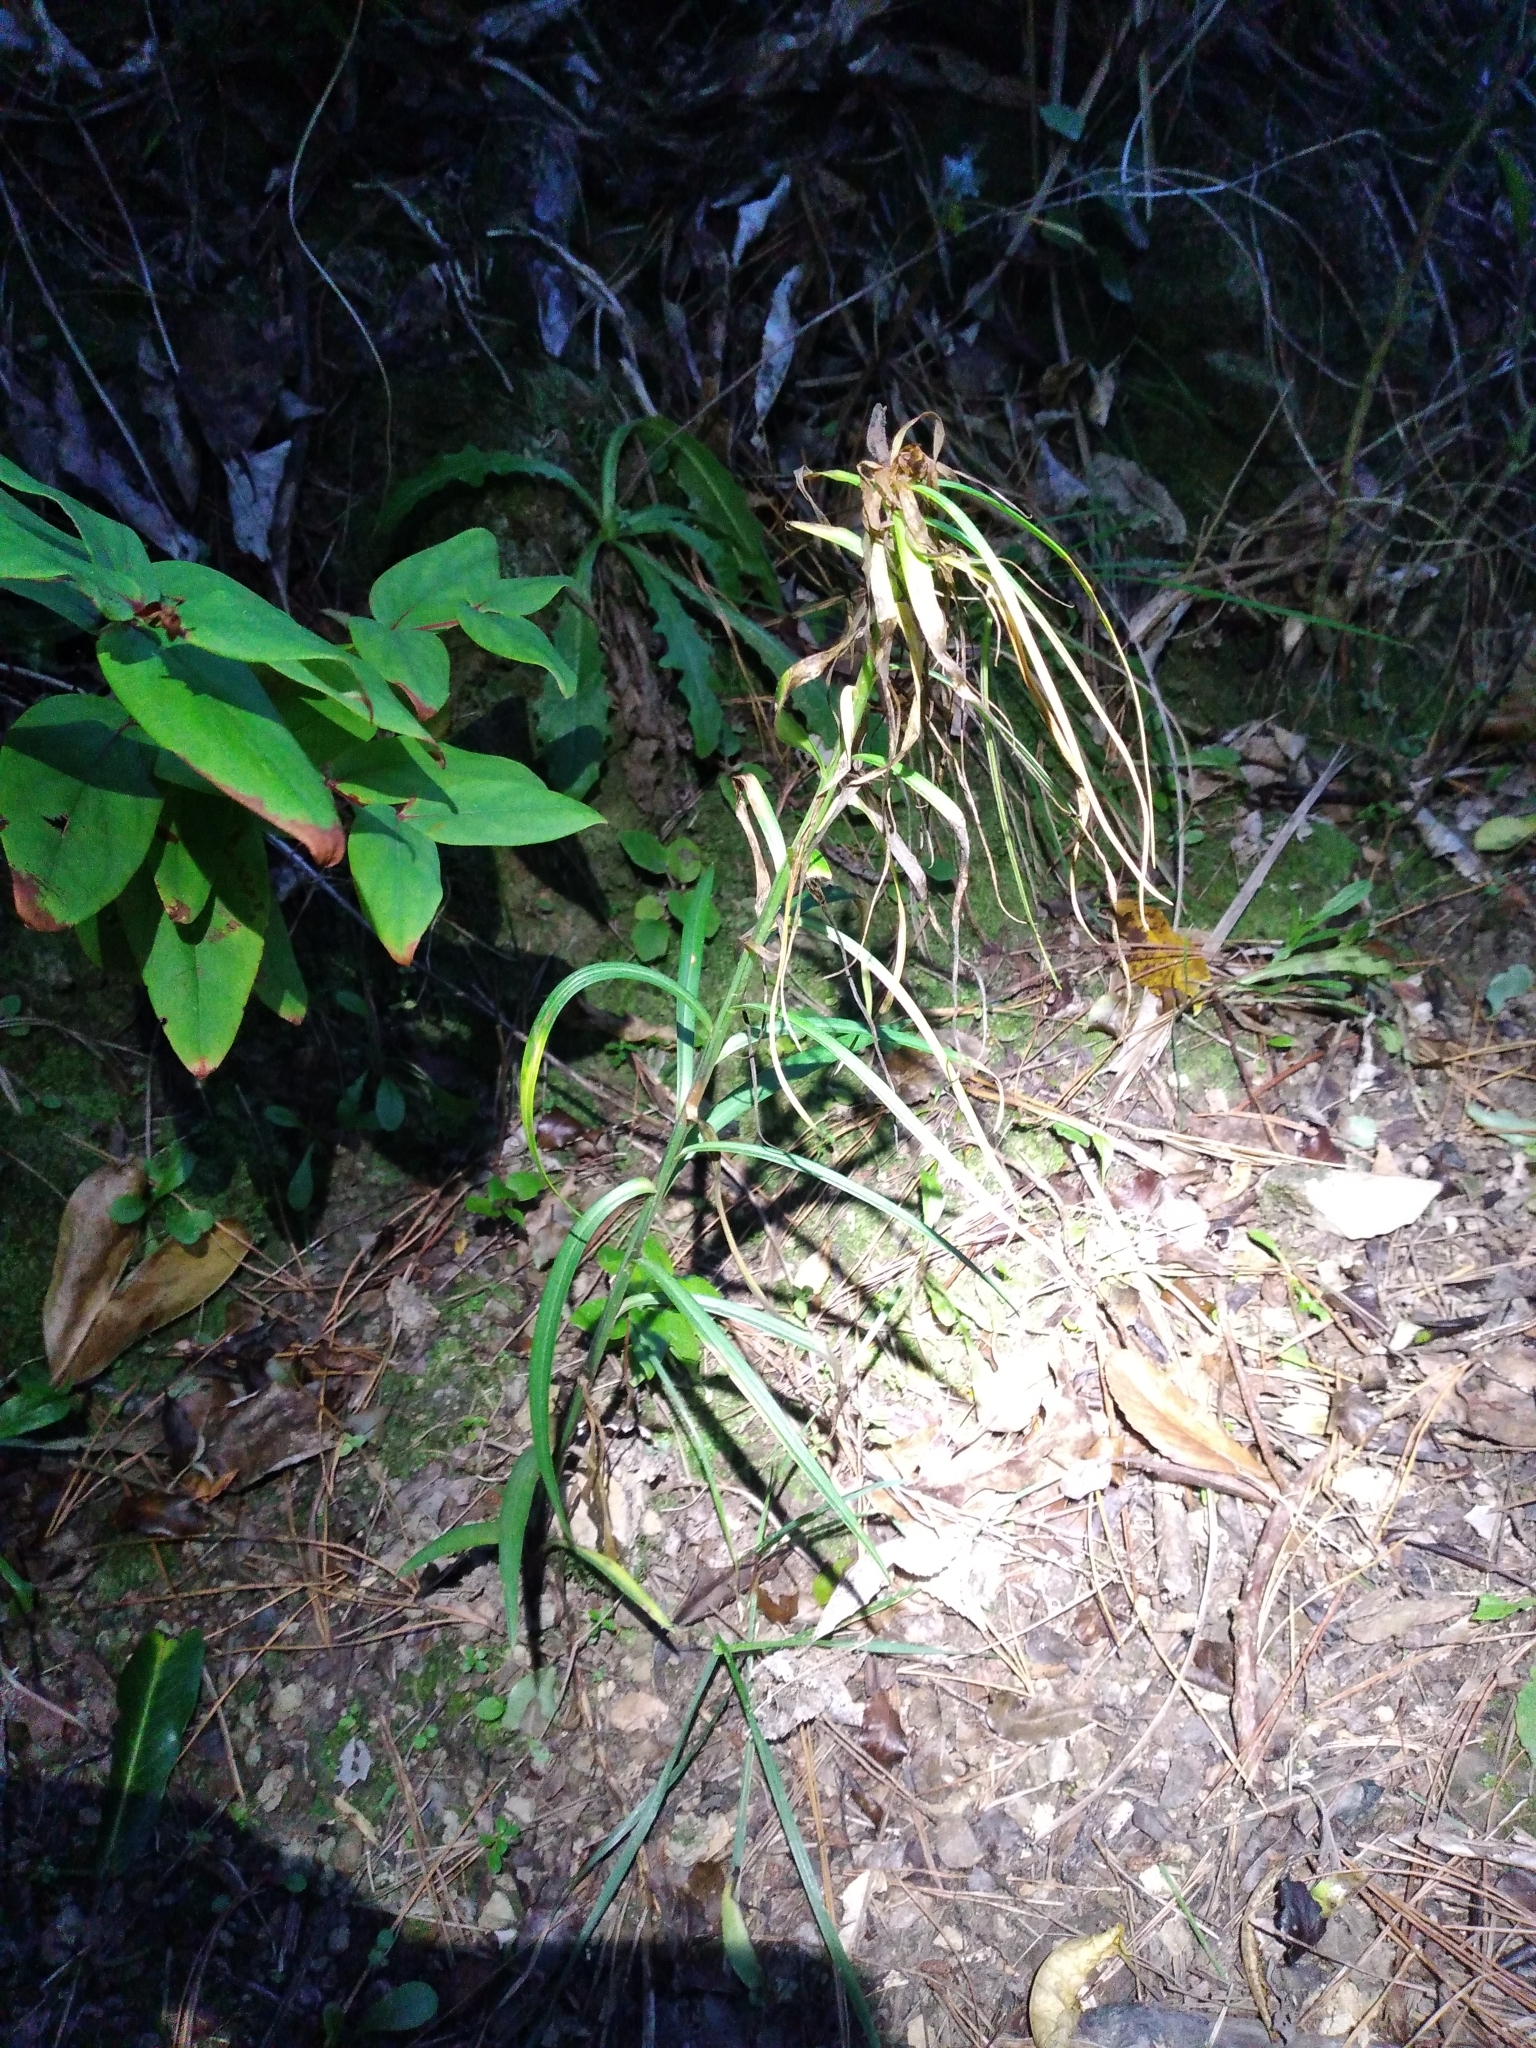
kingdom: Plantae
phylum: Tracheophyta
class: Liliopsida
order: Liliales
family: Liliaceae
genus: Lilium
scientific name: Lilium formosanum
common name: Formosa lily
